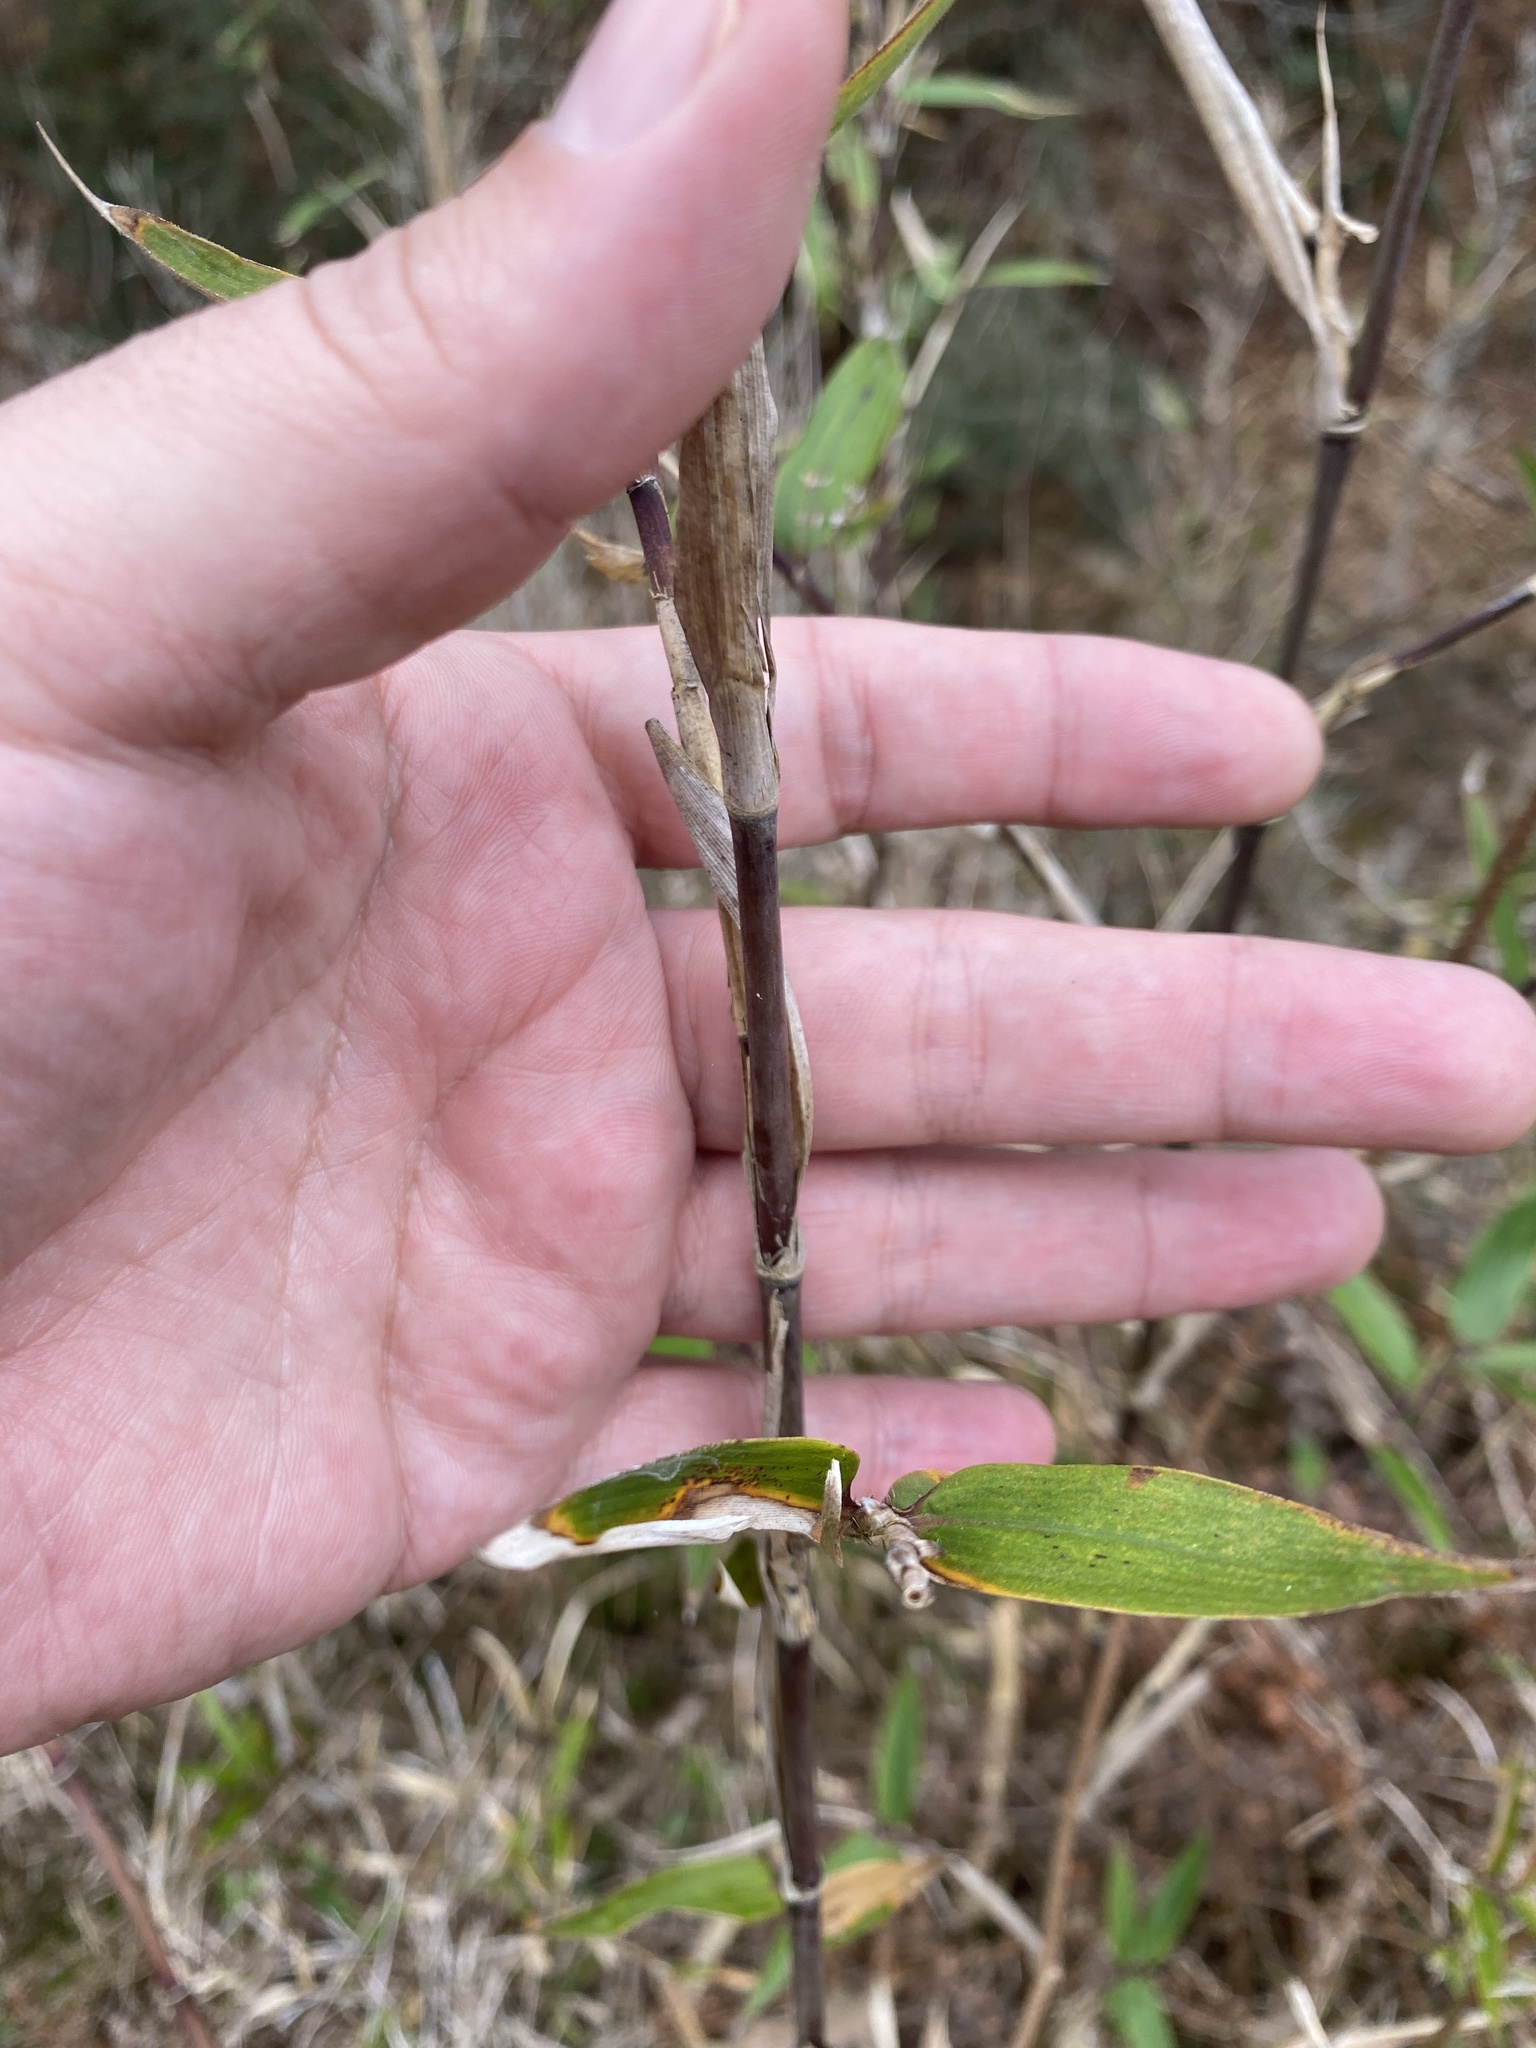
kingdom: Plantae
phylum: Tracheophyta
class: Liliopsida
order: Poales
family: Poaceae
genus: Arundinaria
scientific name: Arundinaria gigantea
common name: Giant cane
